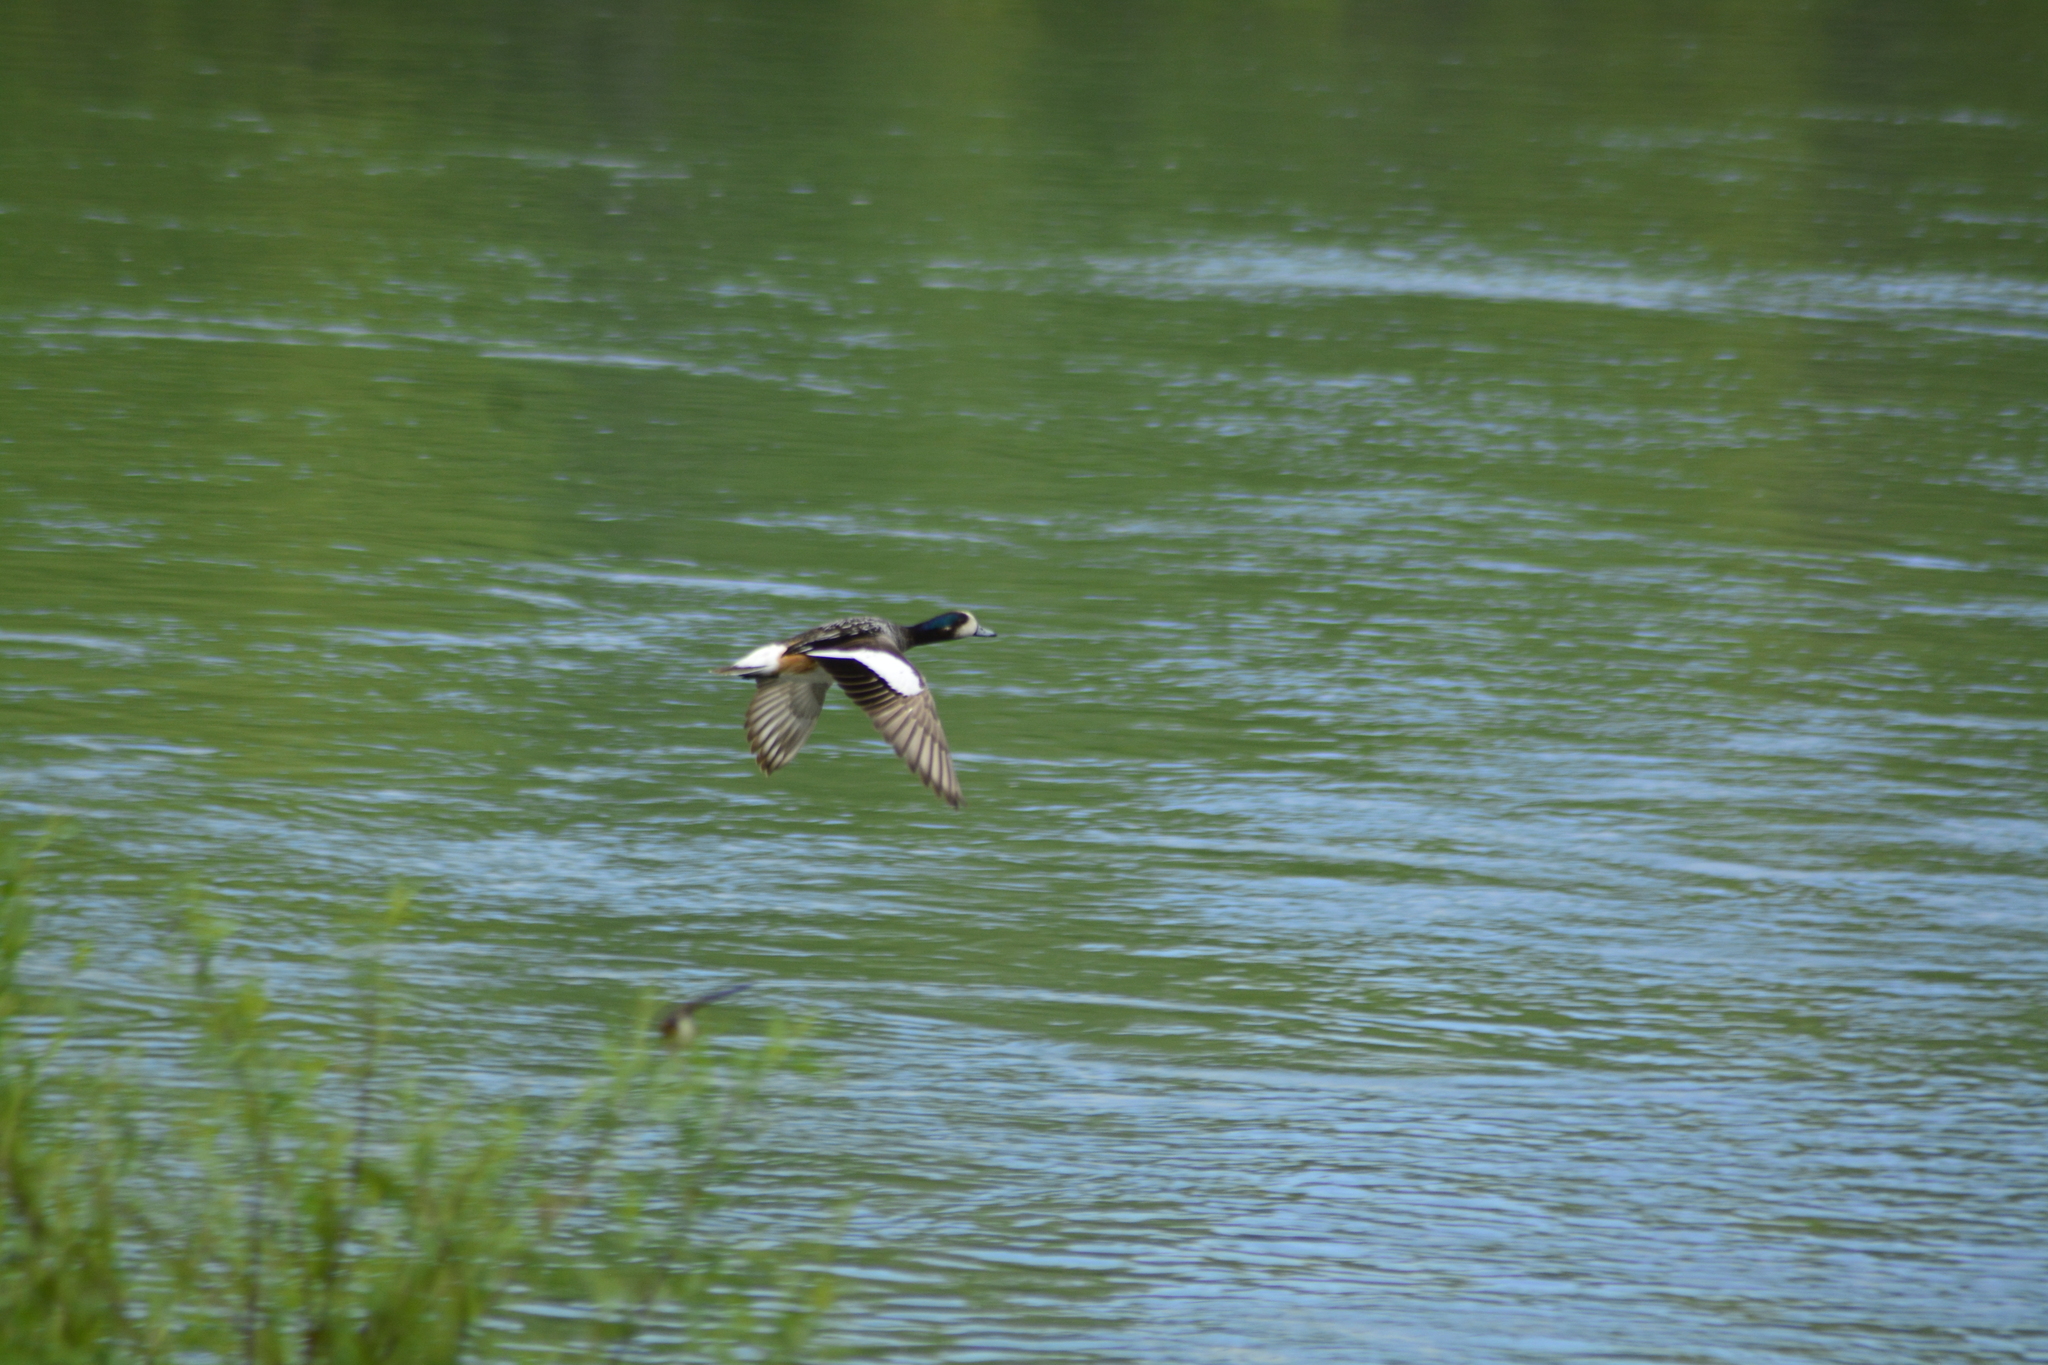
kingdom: Animalia
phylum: Chordata
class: Aves
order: Anseriformes
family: Anatidae
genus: Mareca
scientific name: Mareca sibilatrix
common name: Chiloe wigeon
